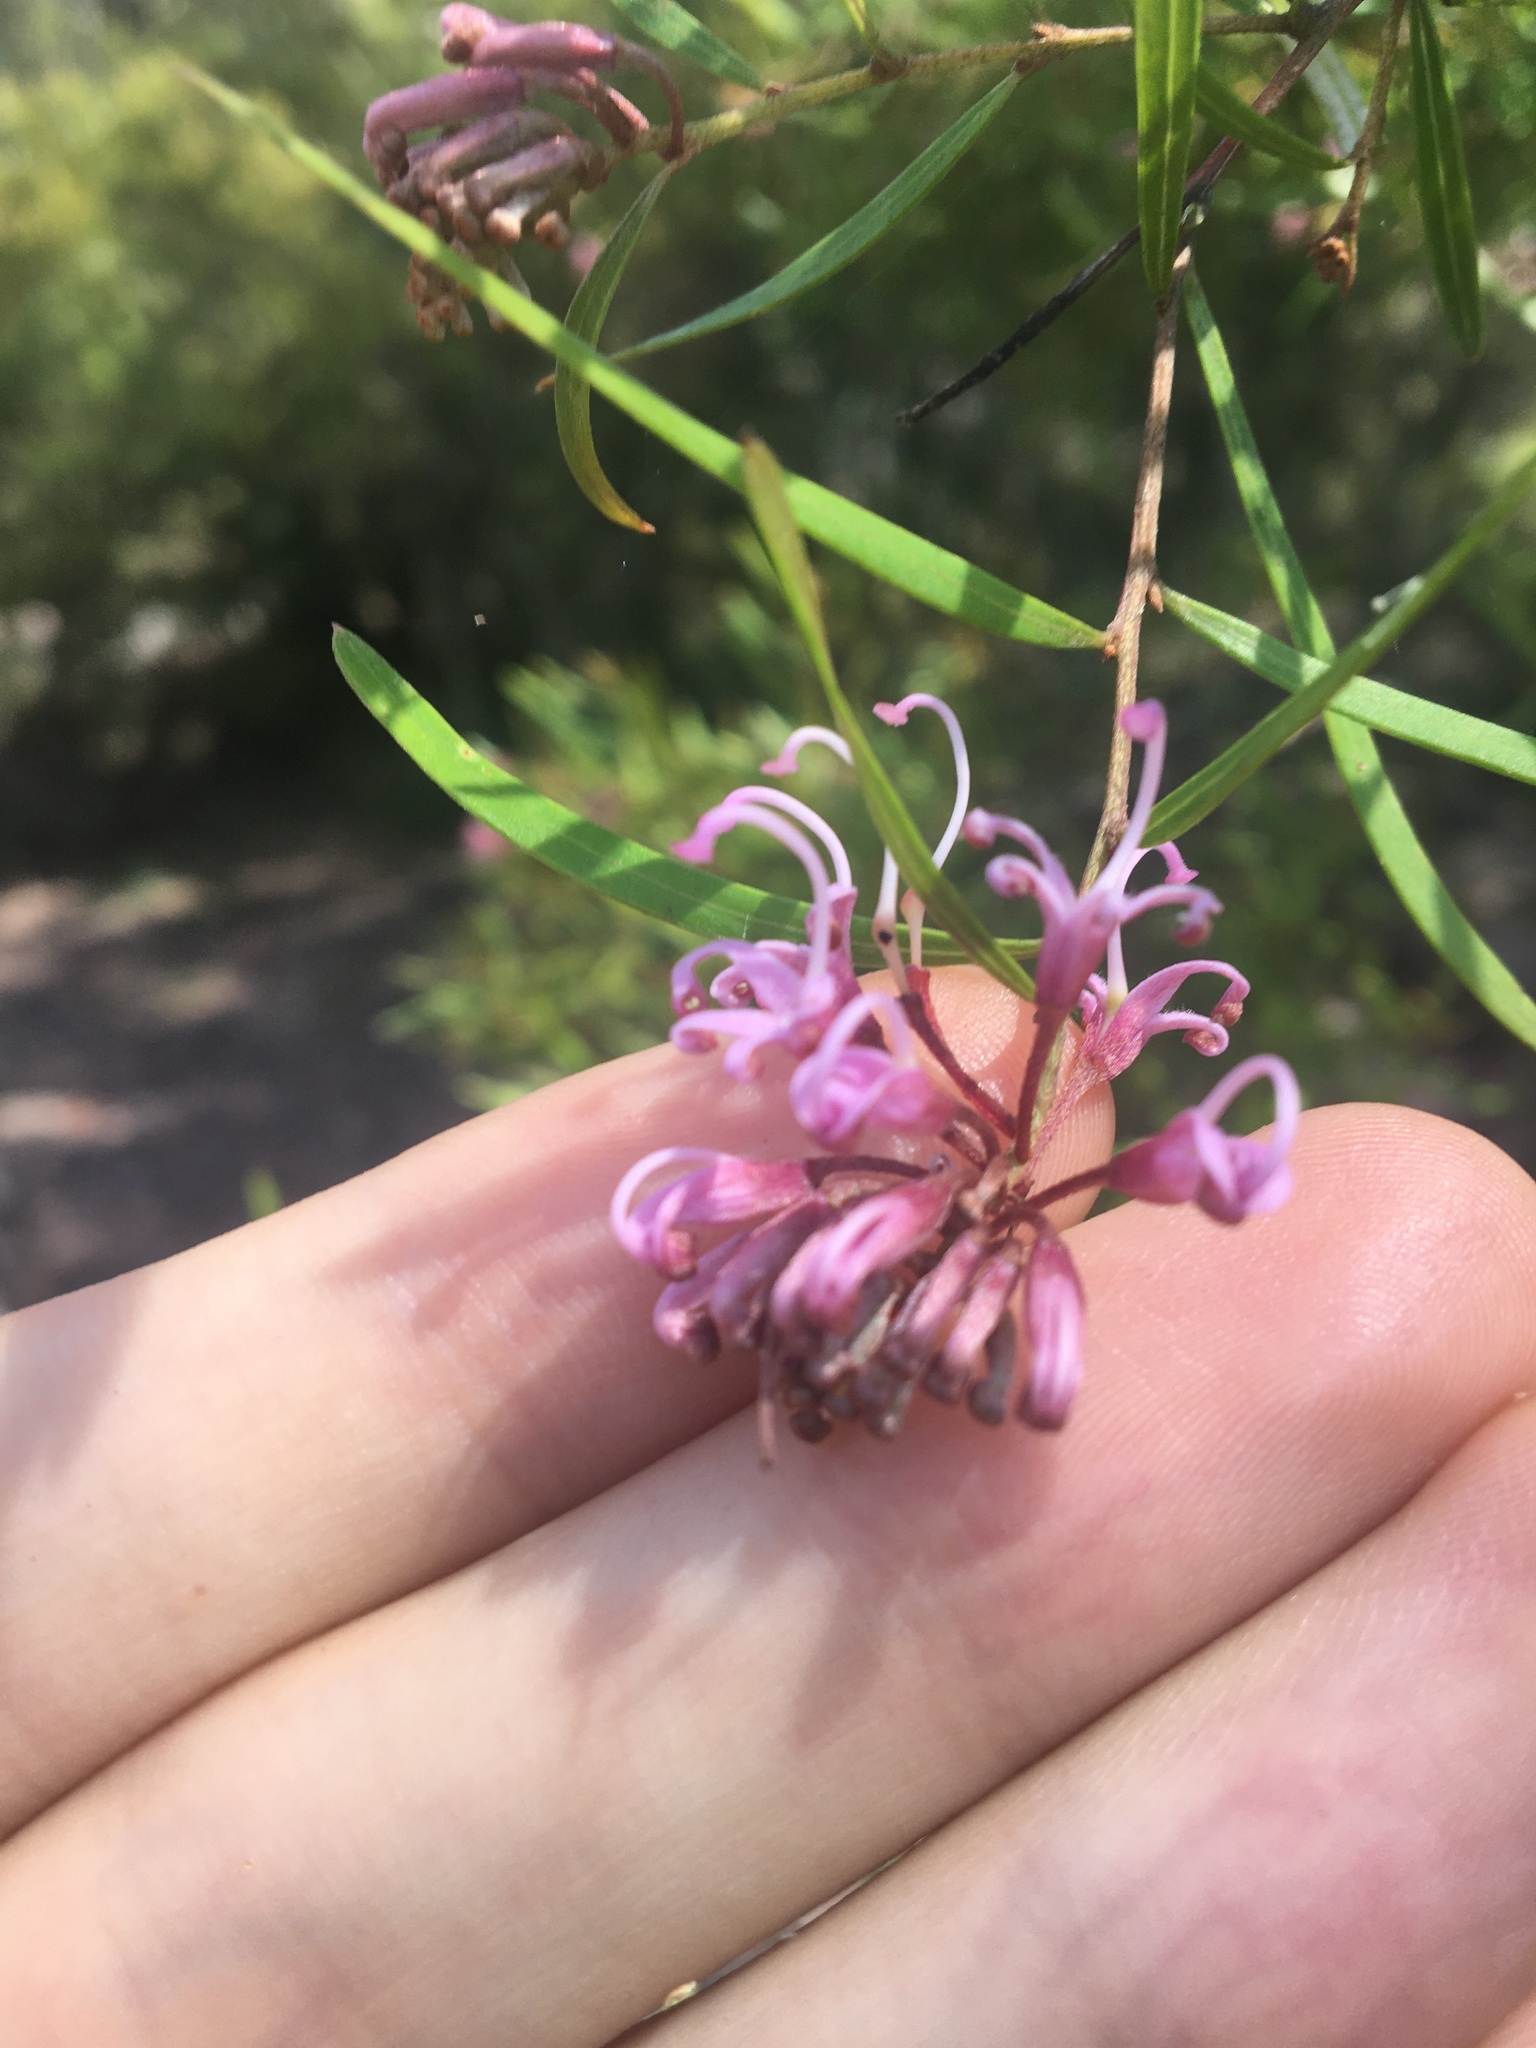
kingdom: Plantae
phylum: Tracheophyta
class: Magnoliopsida
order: Proteales
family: Proteaceae
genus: Grevillea
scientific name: Grevillea sericea
